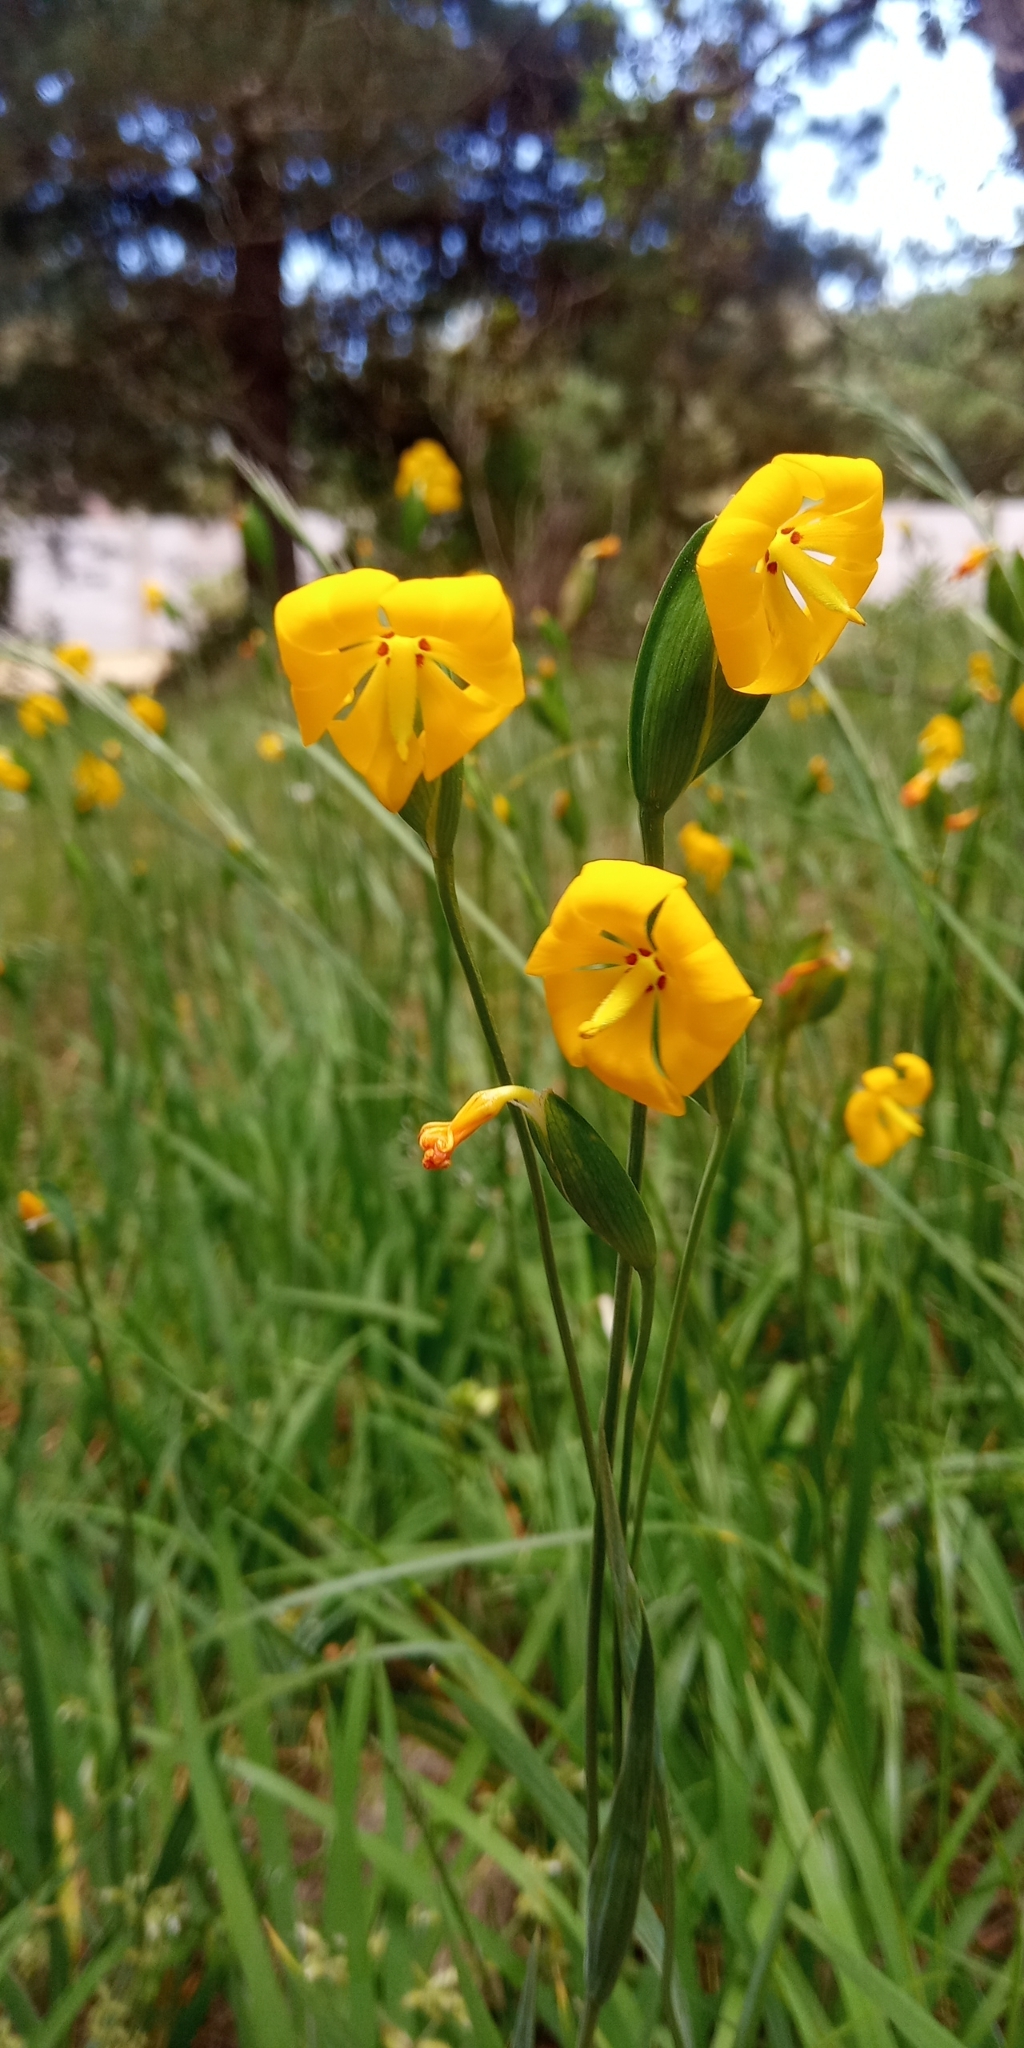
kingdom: Plantae
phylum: Tracheophyta
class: Liliopsida
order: Asparagales
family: Iridaceae
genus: Solenomelus
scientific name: Solenomelus pedunculatus
